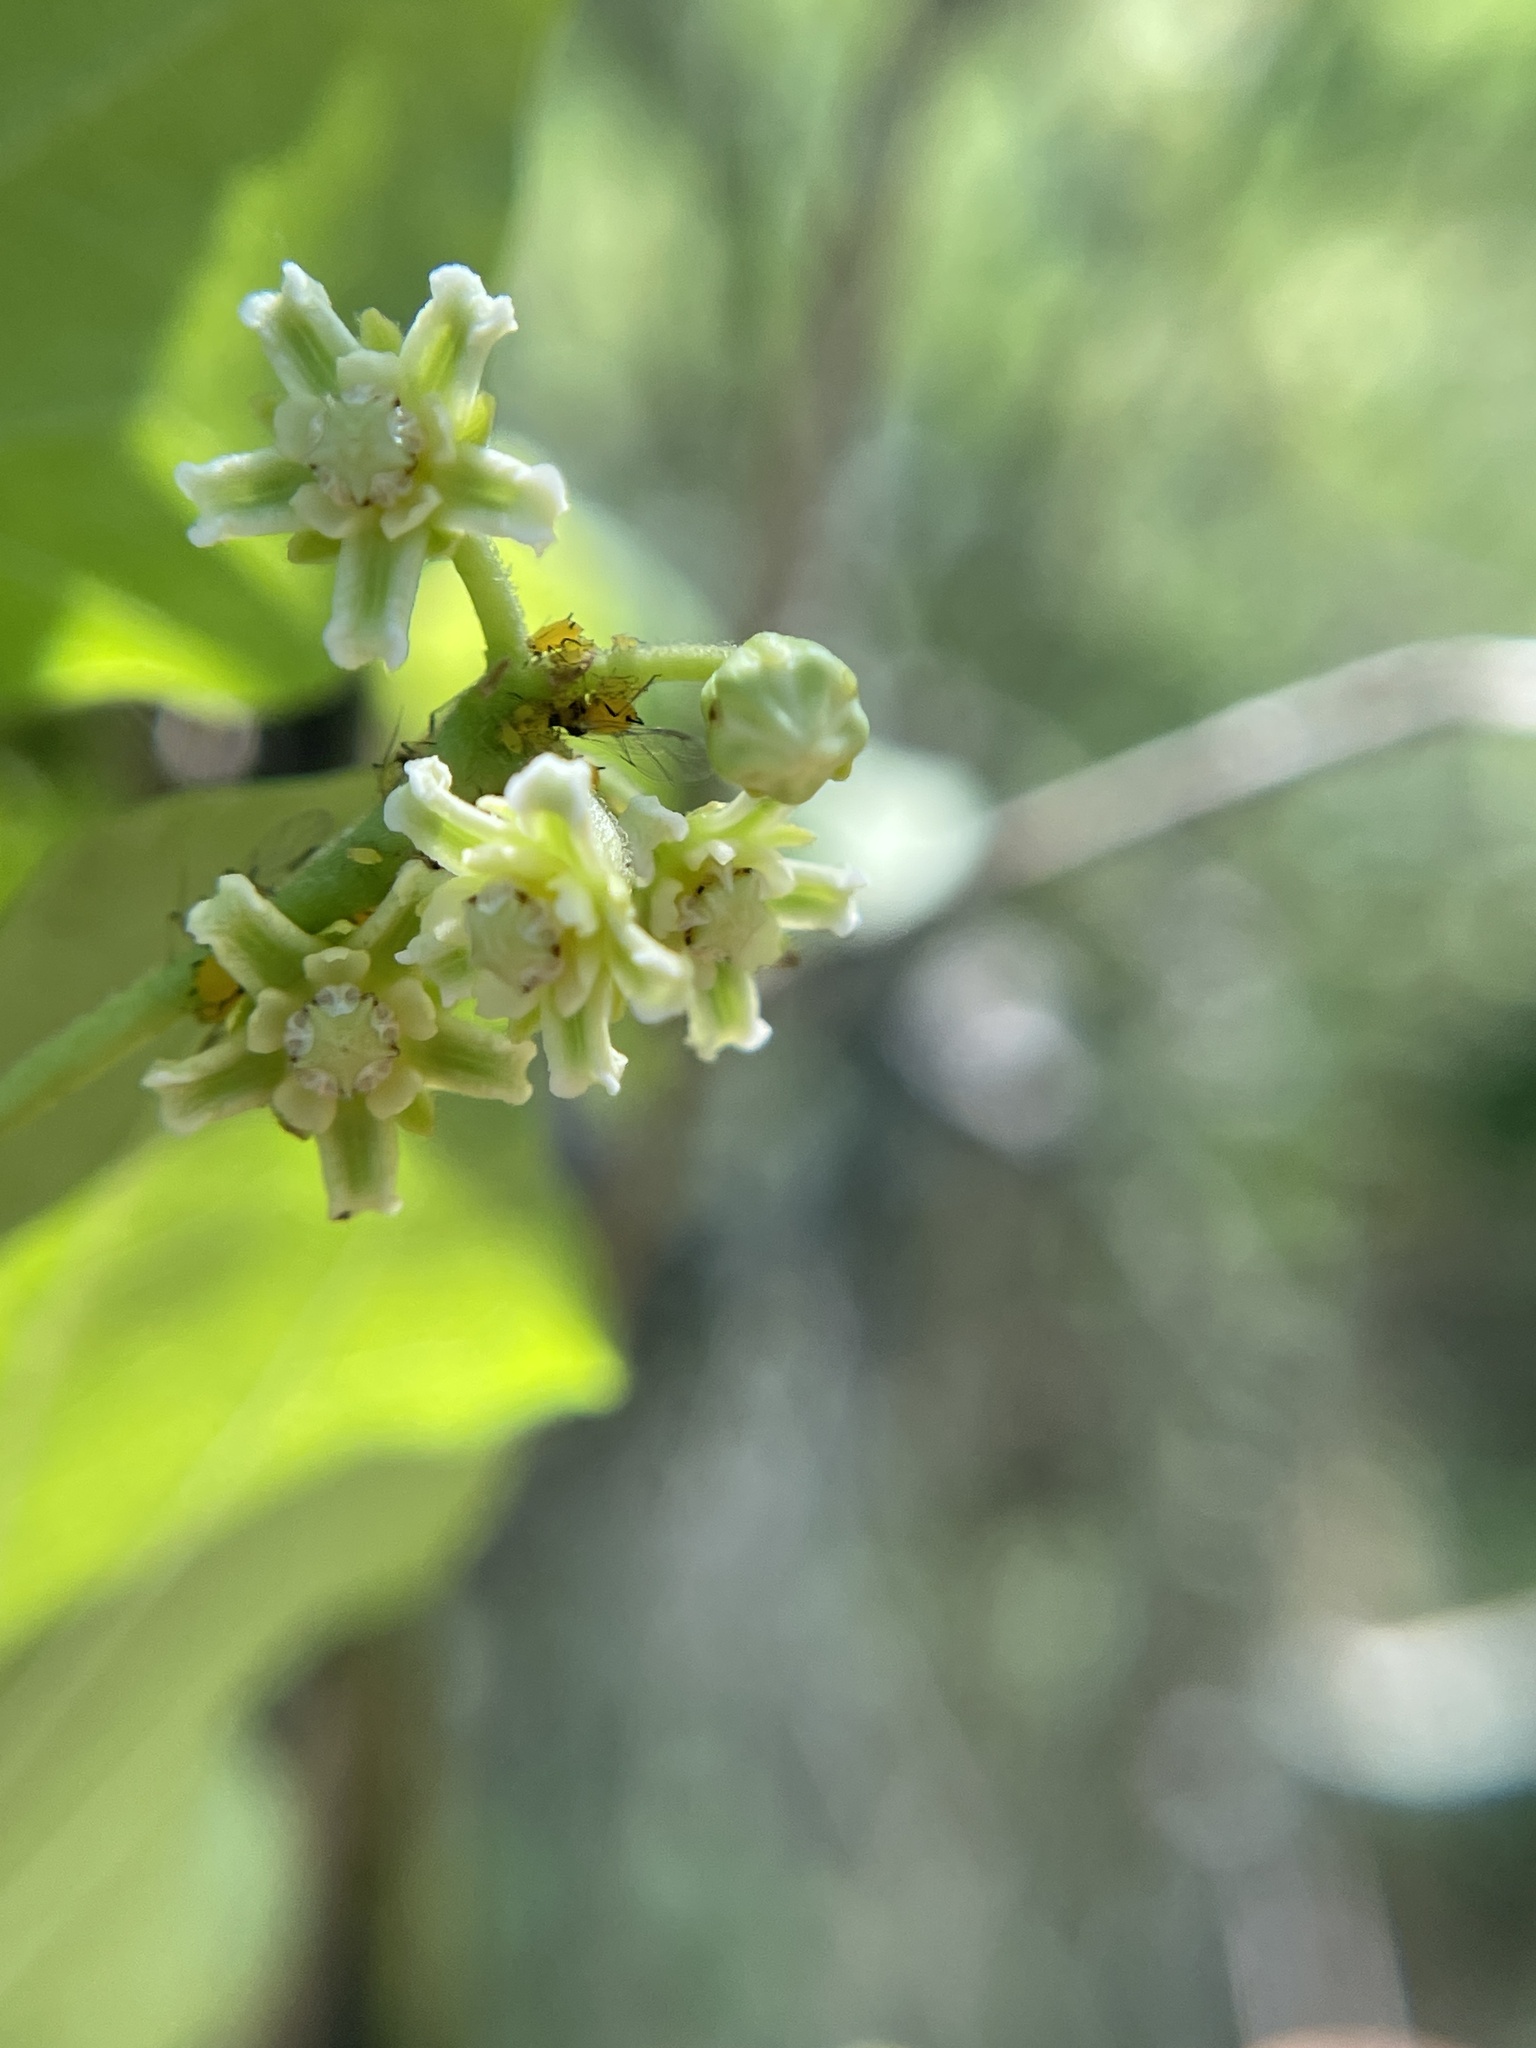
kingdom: Plantae
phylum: Tracheophyta
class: Magnoliopsida
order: Gentianales
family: Apocynaceae
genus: Cynanchum
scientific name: Cynanchum racemosum
